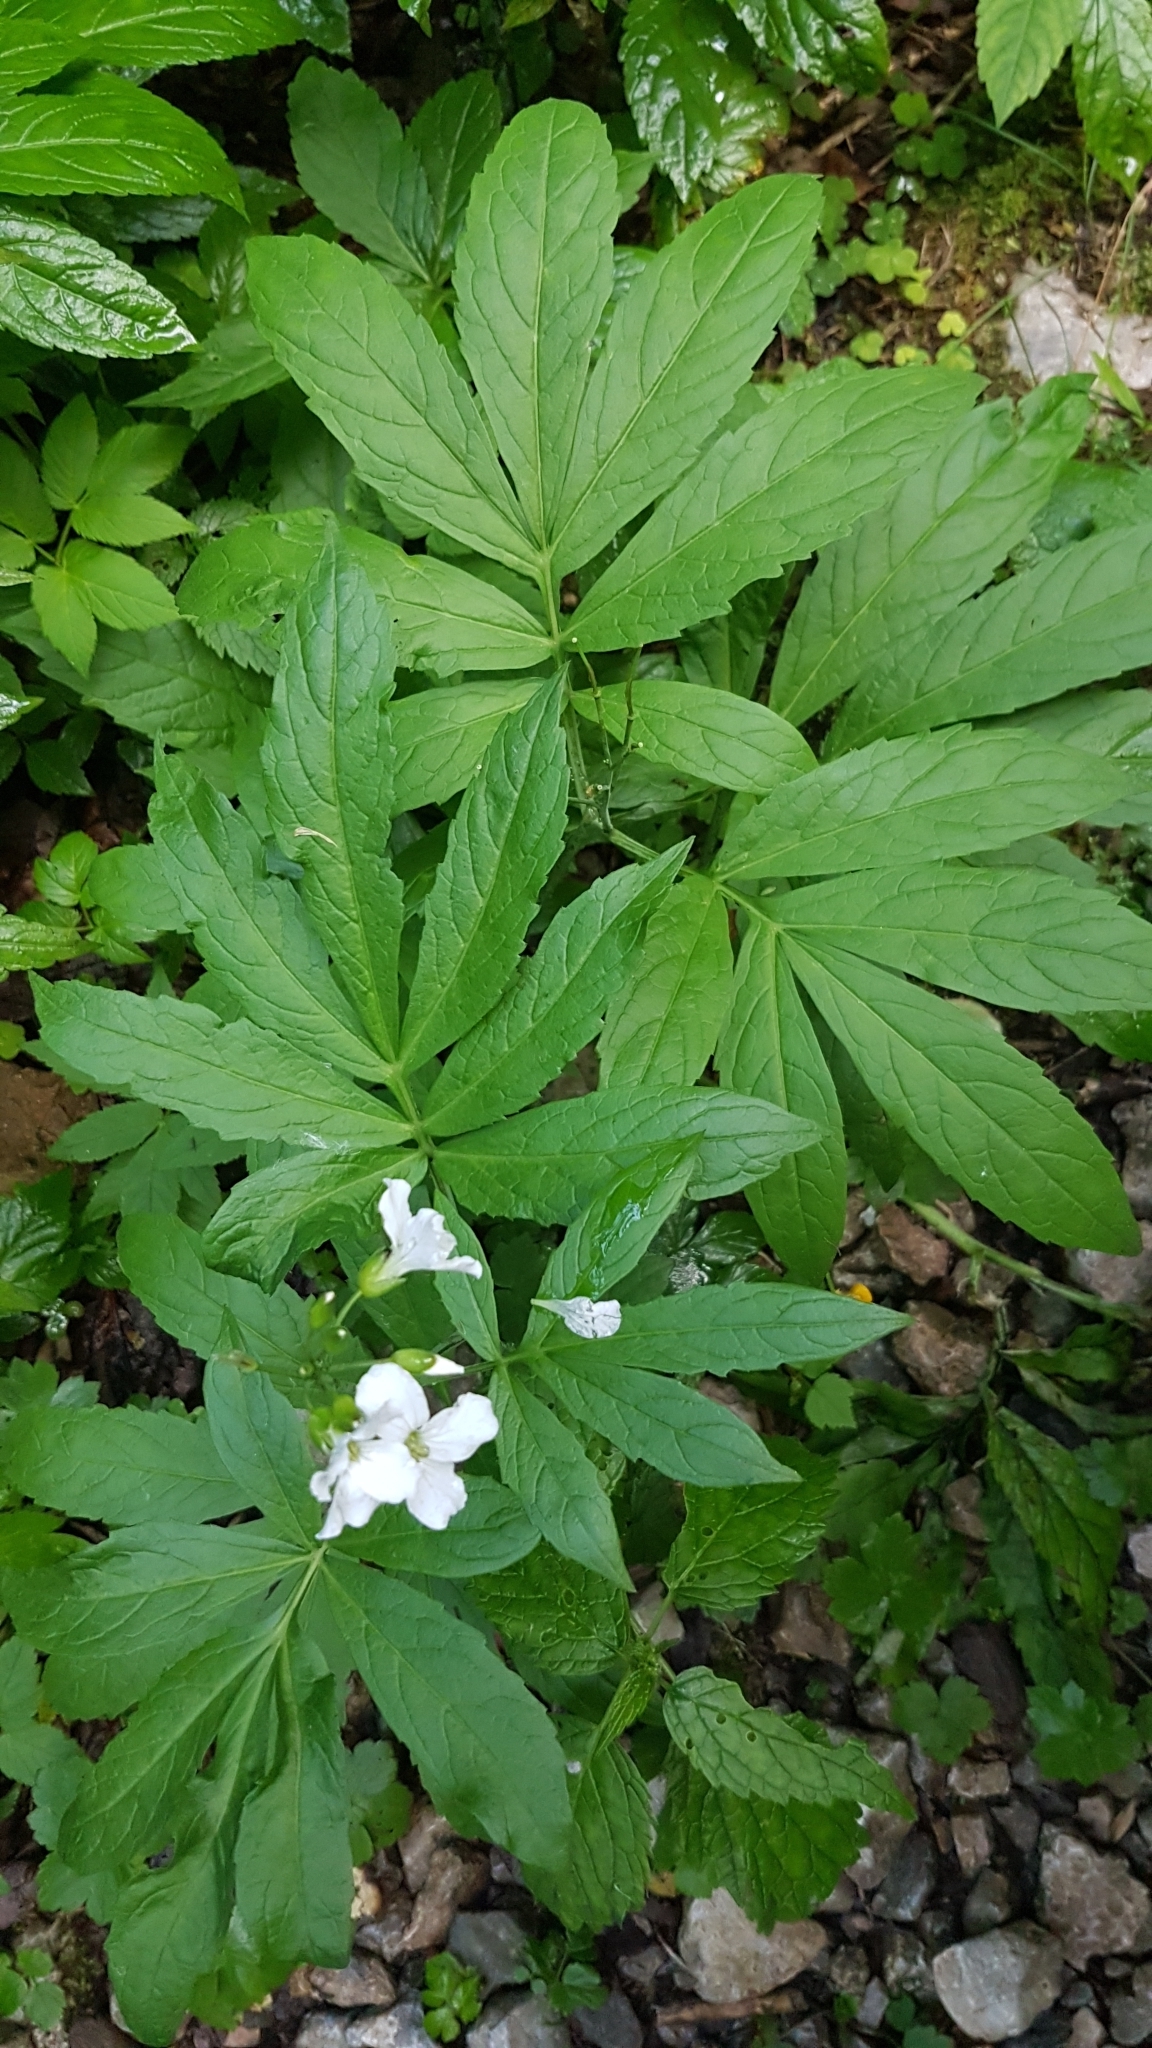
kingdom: Plantae
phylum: Tracheophyta
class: Magnoliopsida
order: Brassicales
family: Brassicaceae
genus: Cardamine
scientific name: Cardamine heptaphylla
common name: Pinnate coralroot
